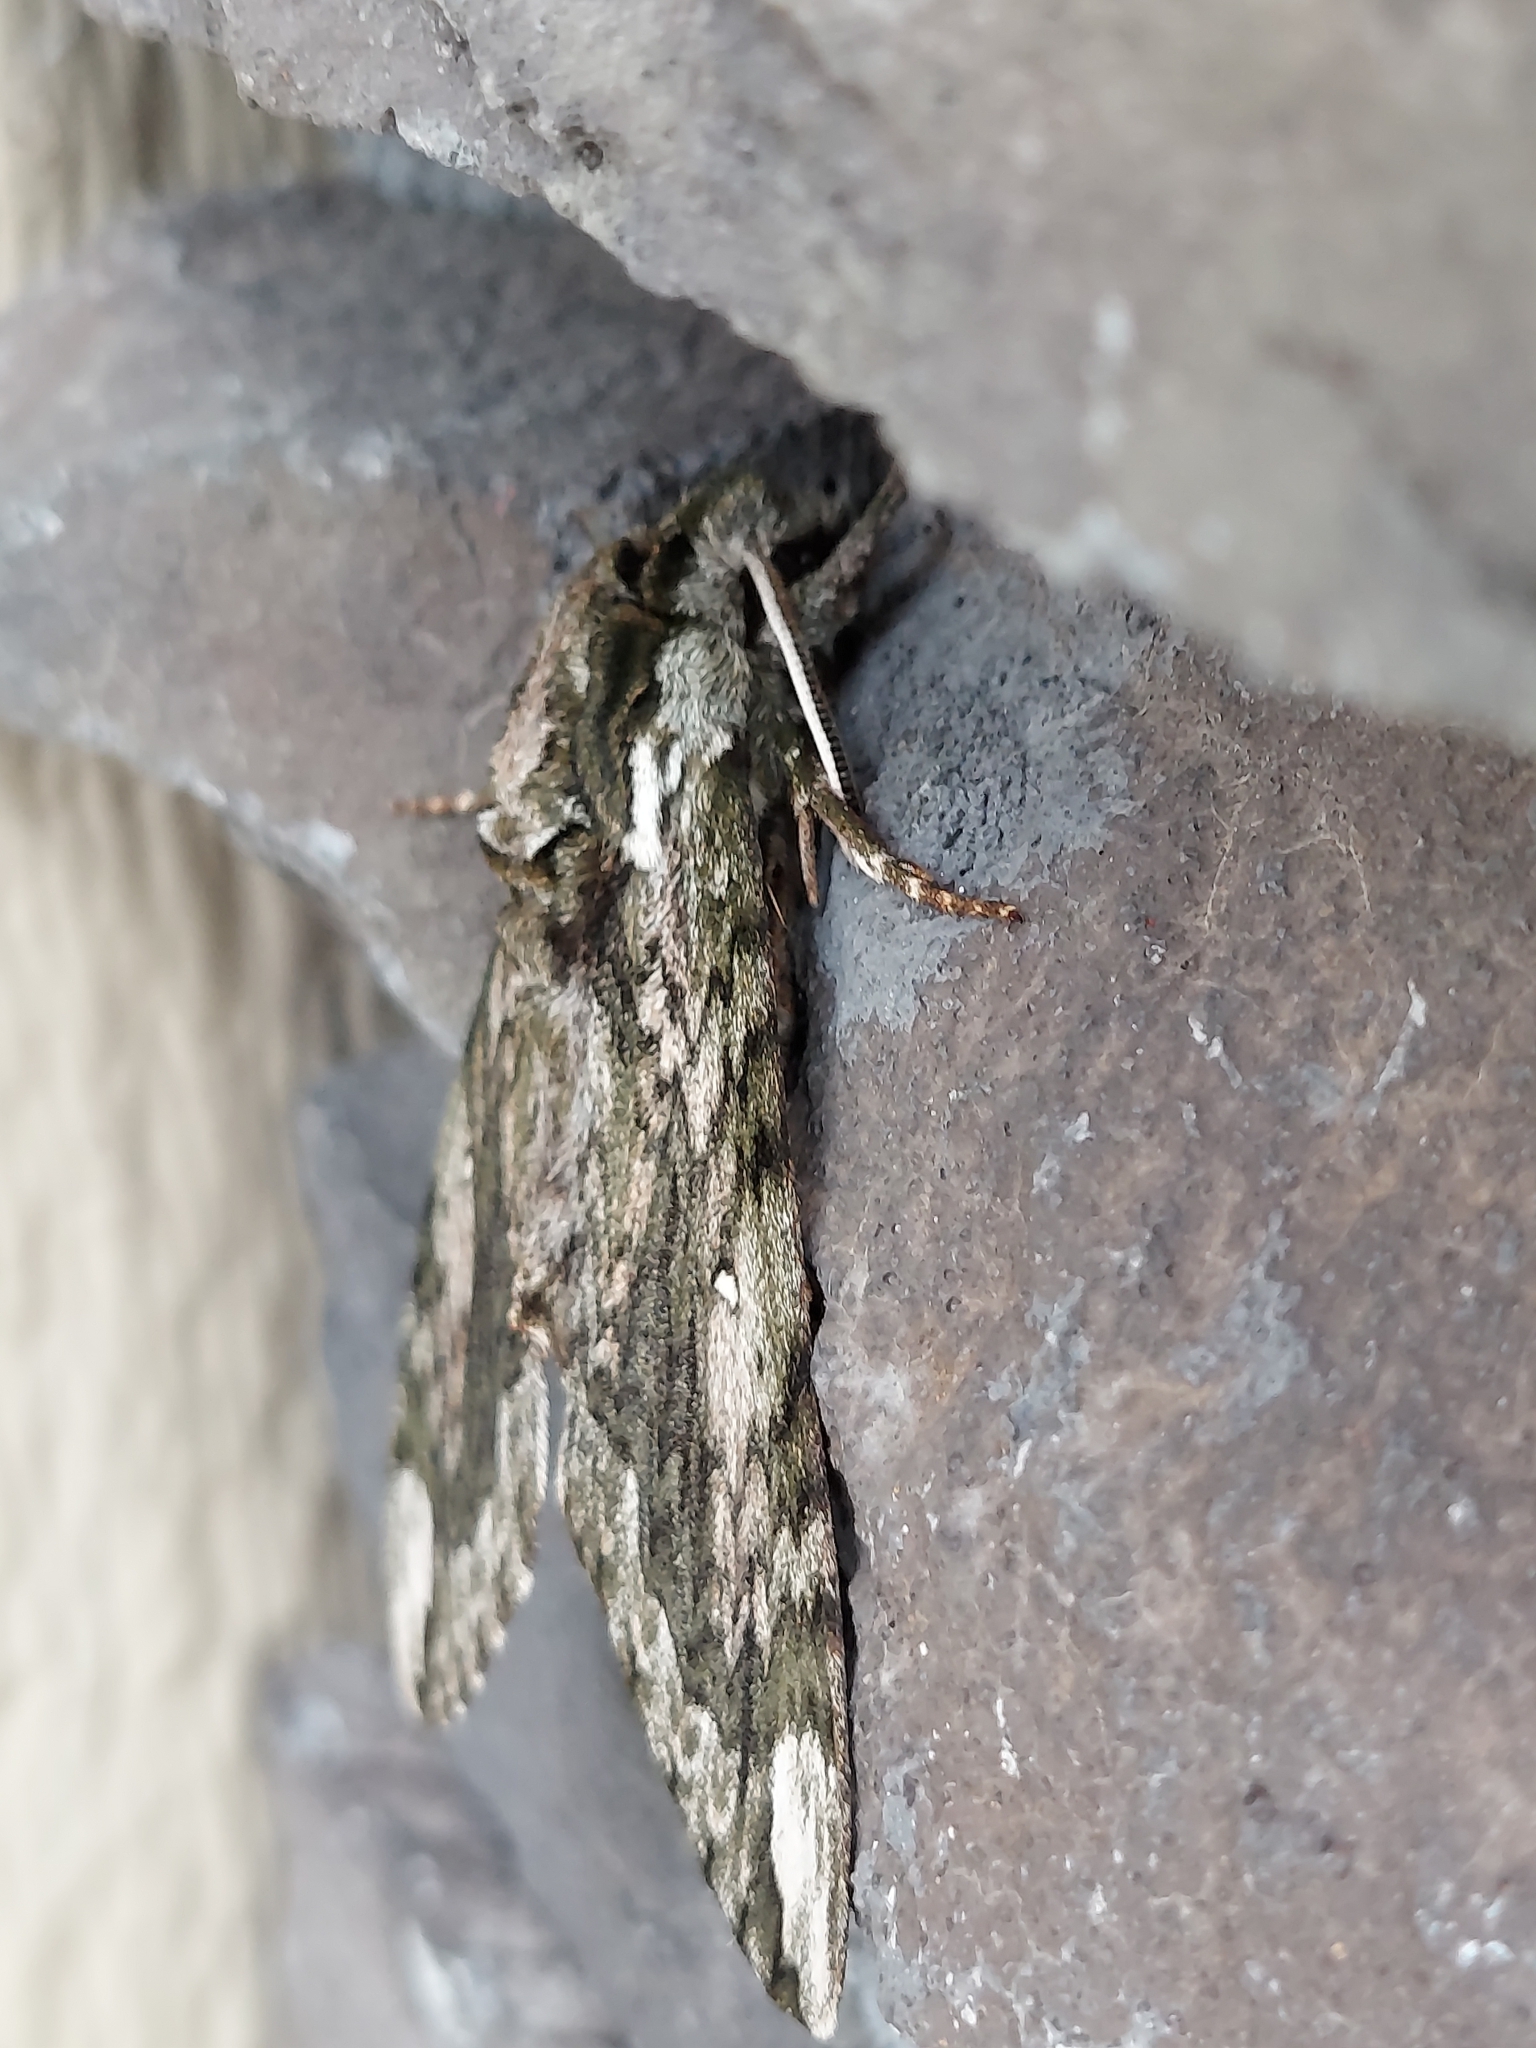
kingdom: Animalia
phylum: Arthropoda
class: Insecta
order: Lepidoptera
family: Sphingidae
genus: Ceratomia
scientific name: Ceratomia hageni
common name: Hagen's sphinx
